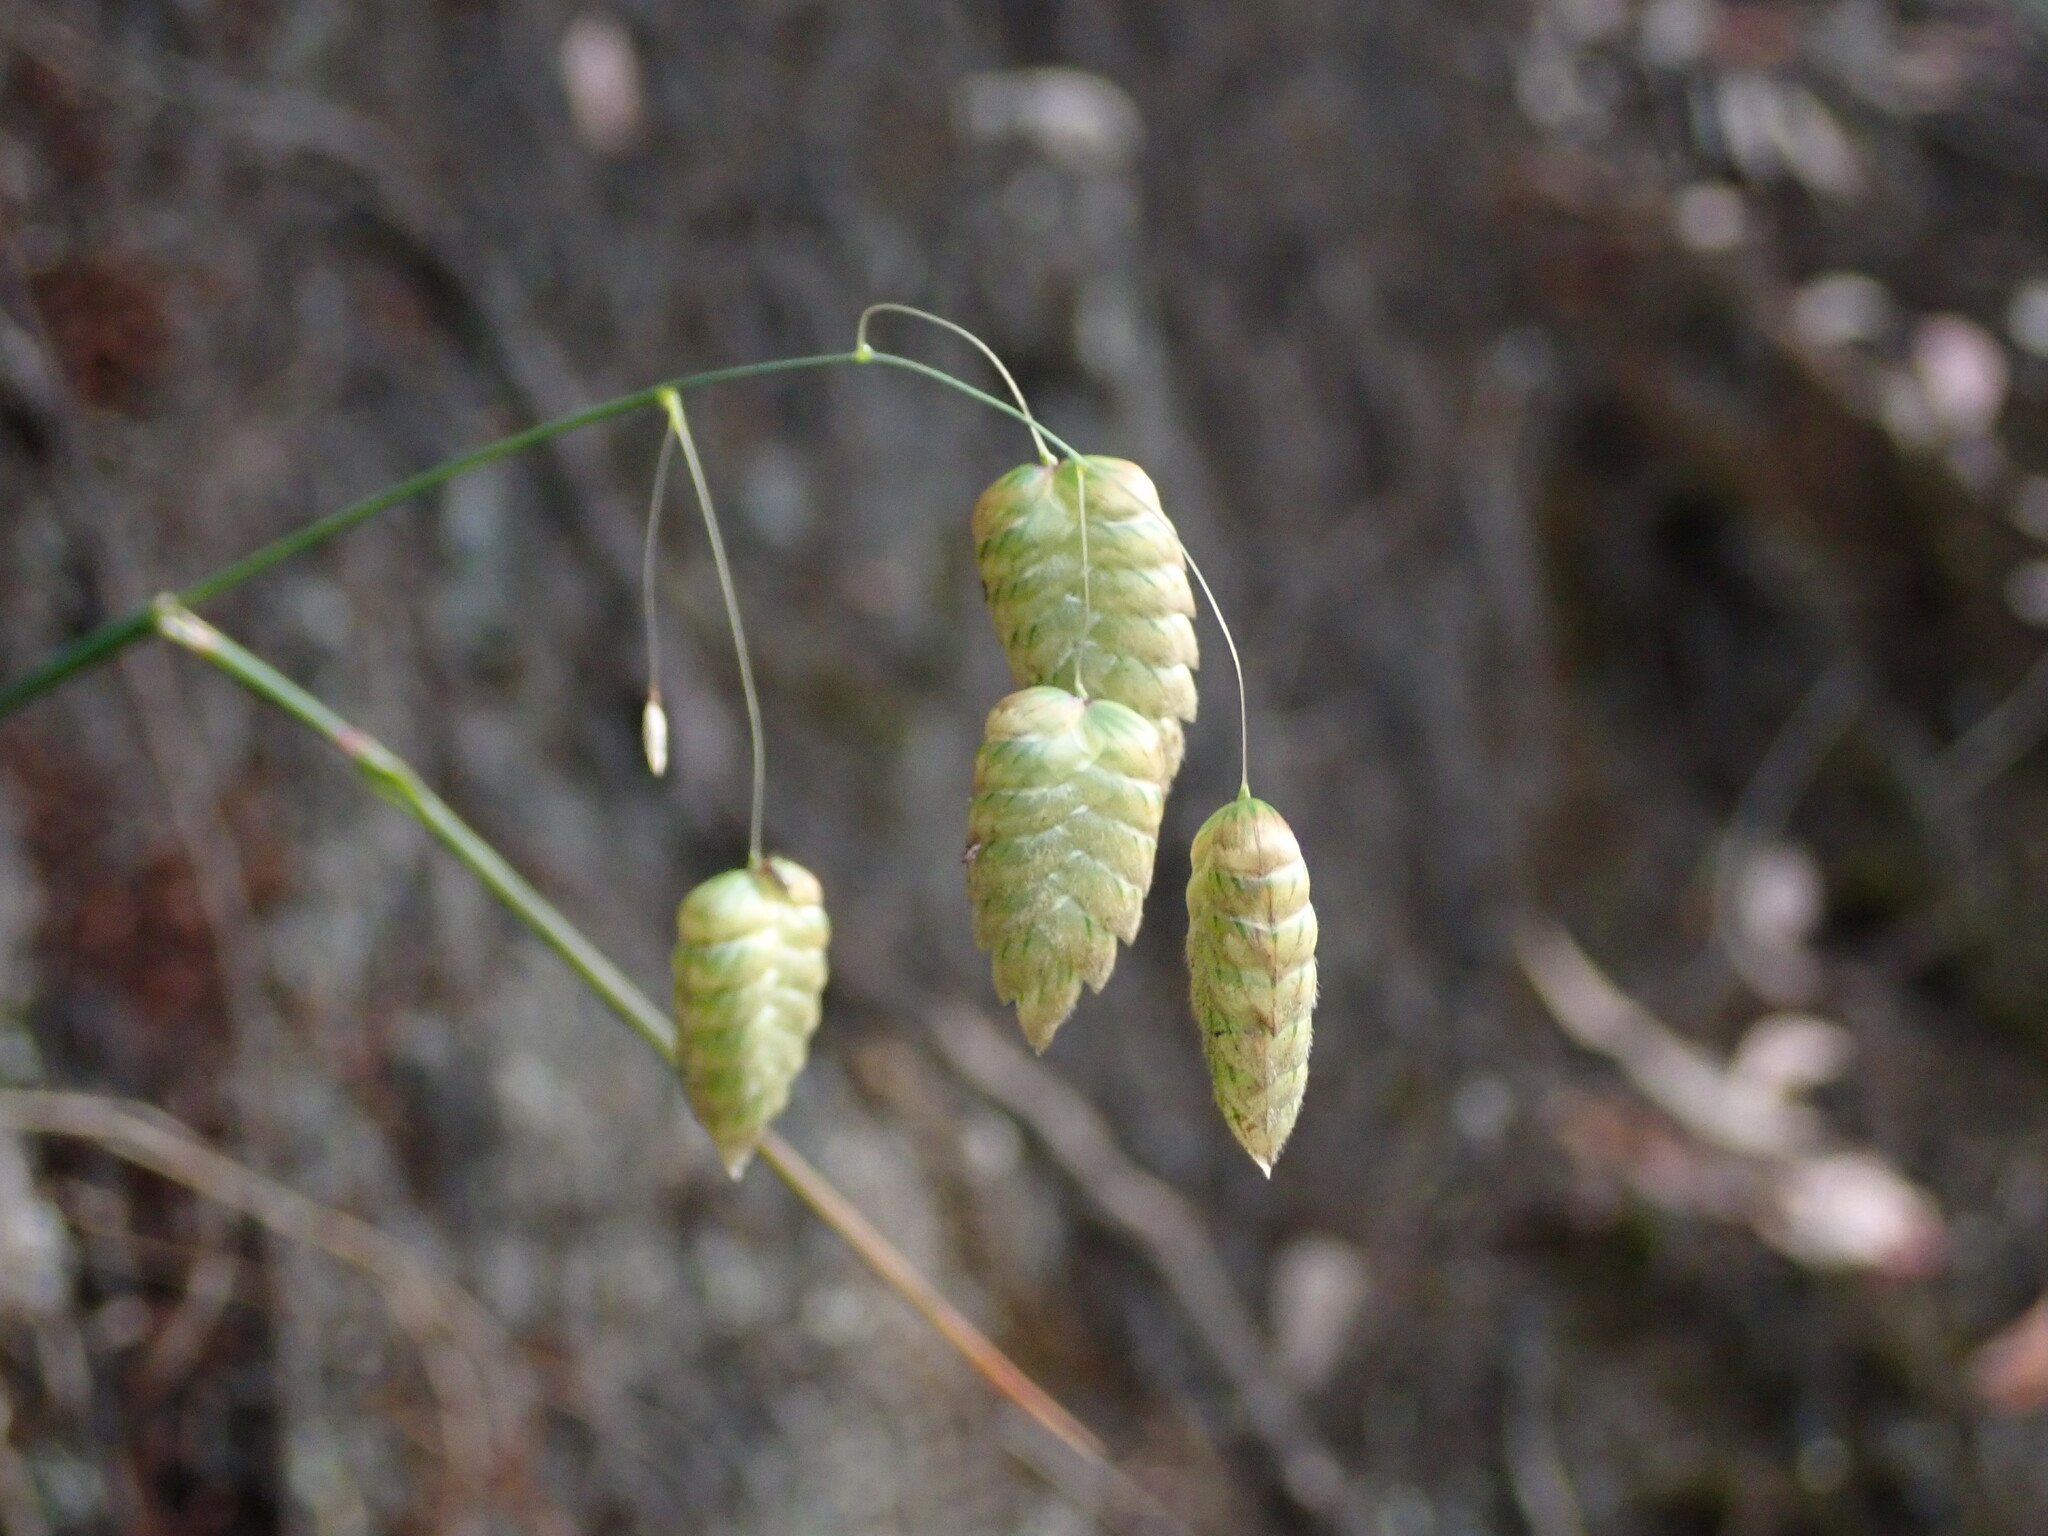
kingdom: Plantae
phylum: Tracheophyta
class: Liliopsida
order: Poales
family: Poaceae
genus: Briza
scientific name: Briza maxima
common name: Big quakinggrass
